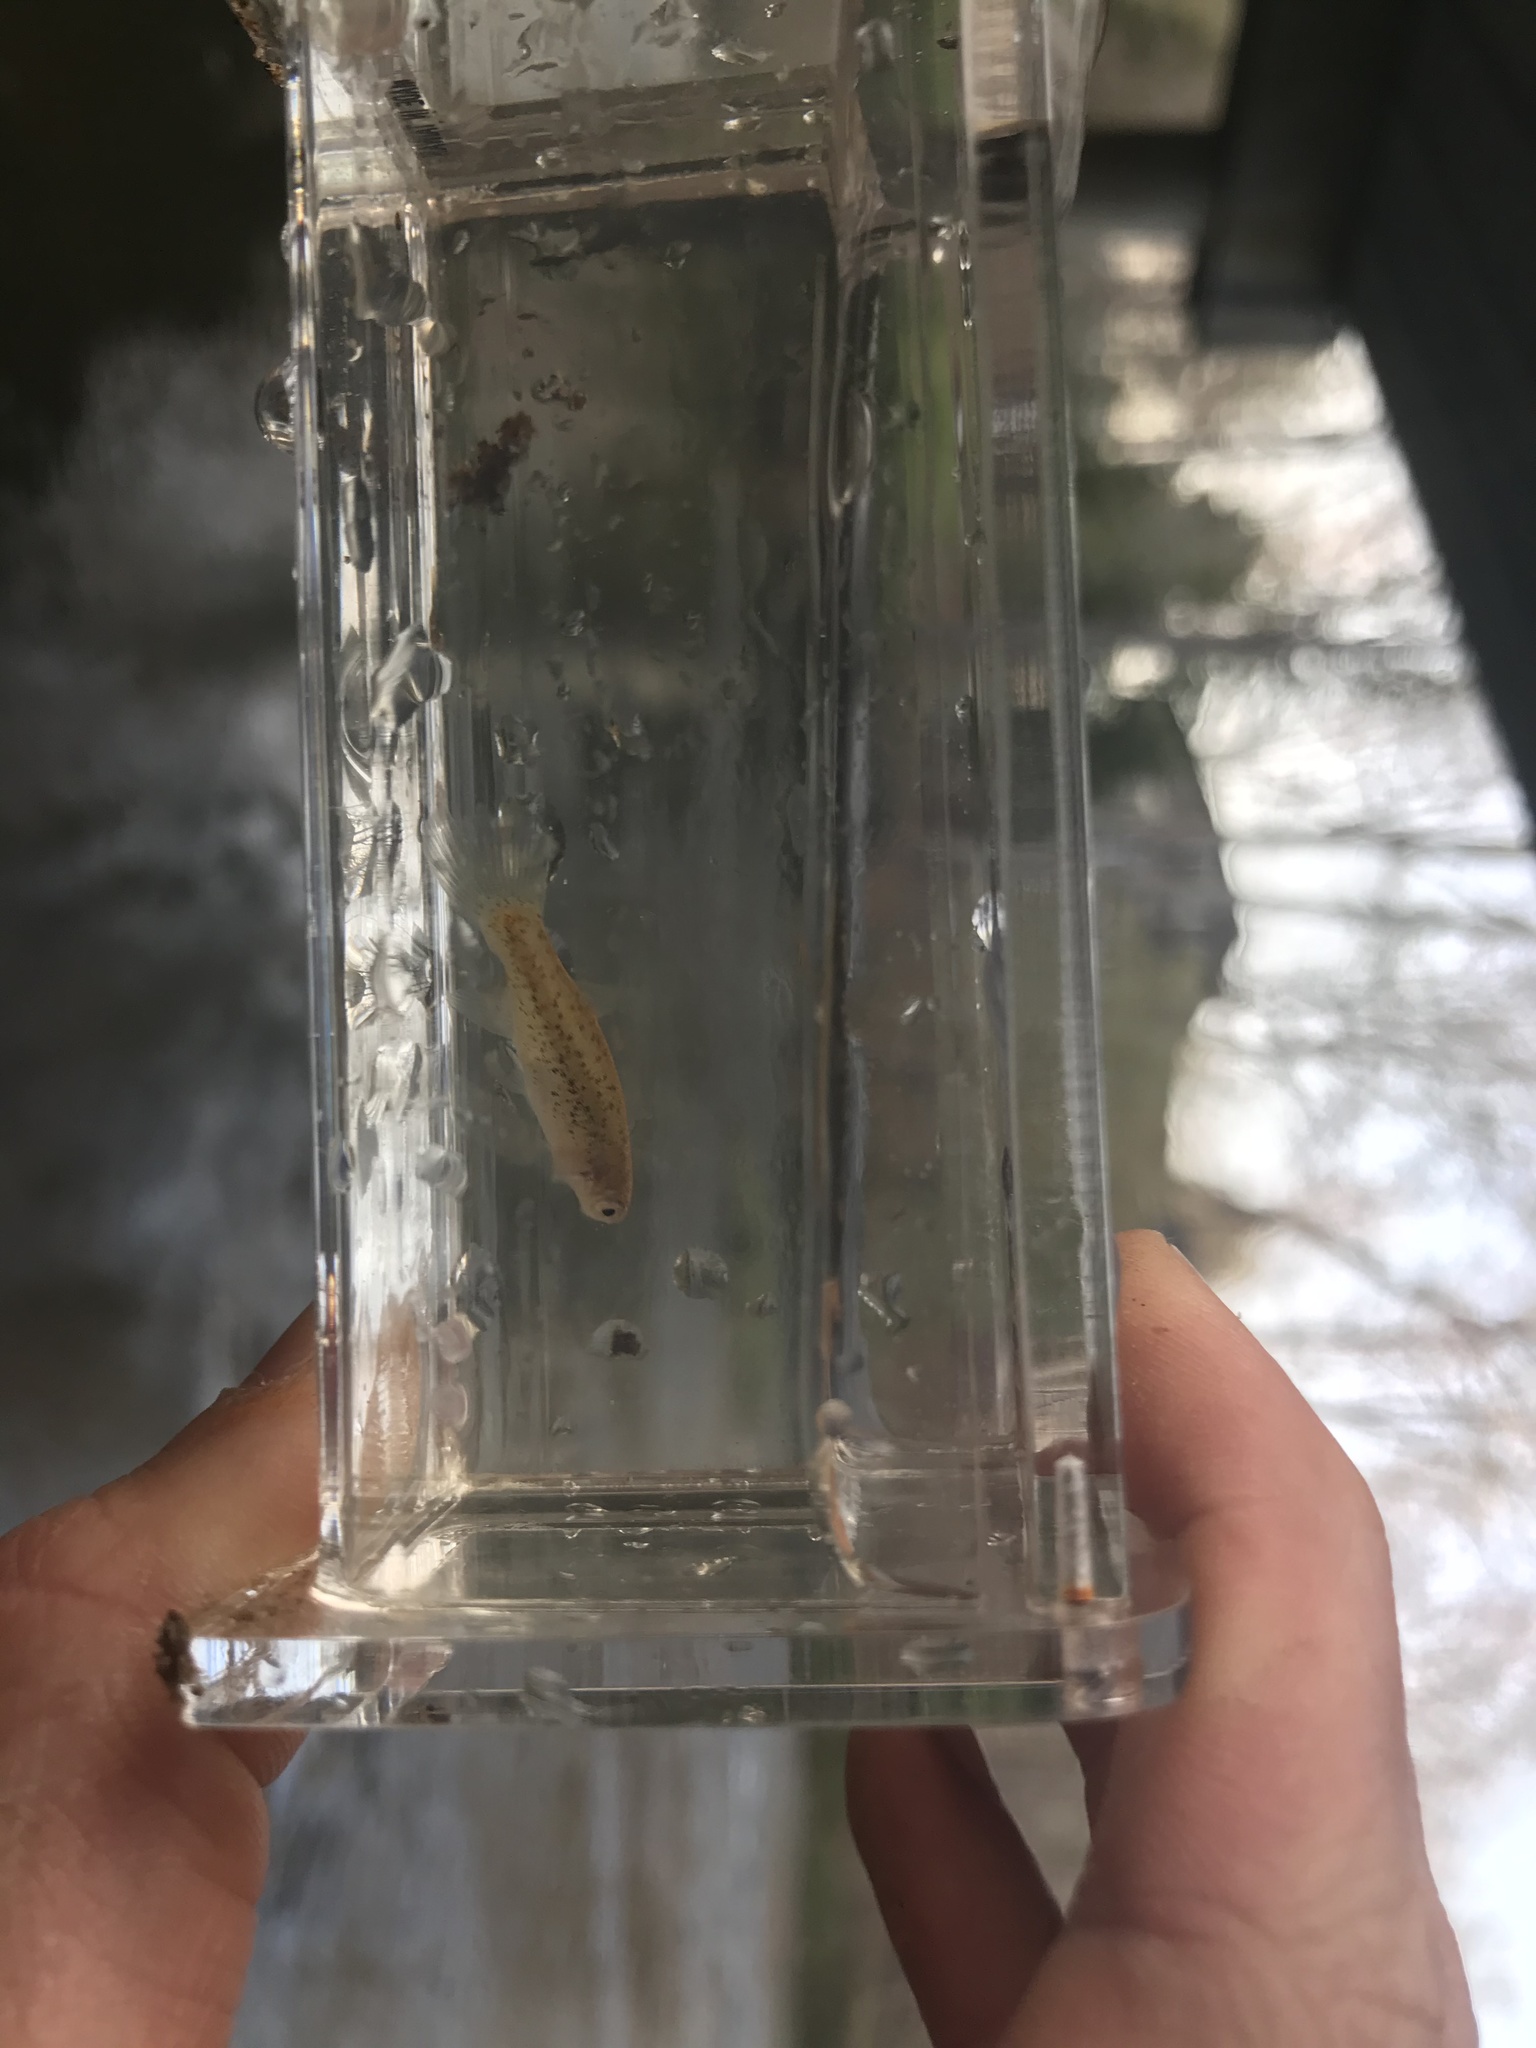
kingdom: Animalia
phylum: Chordata
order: Cyprinodontiformes
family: Fundulidae
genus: Fundulus
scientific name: Fundulus rathbuni
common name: Speckled killifish
